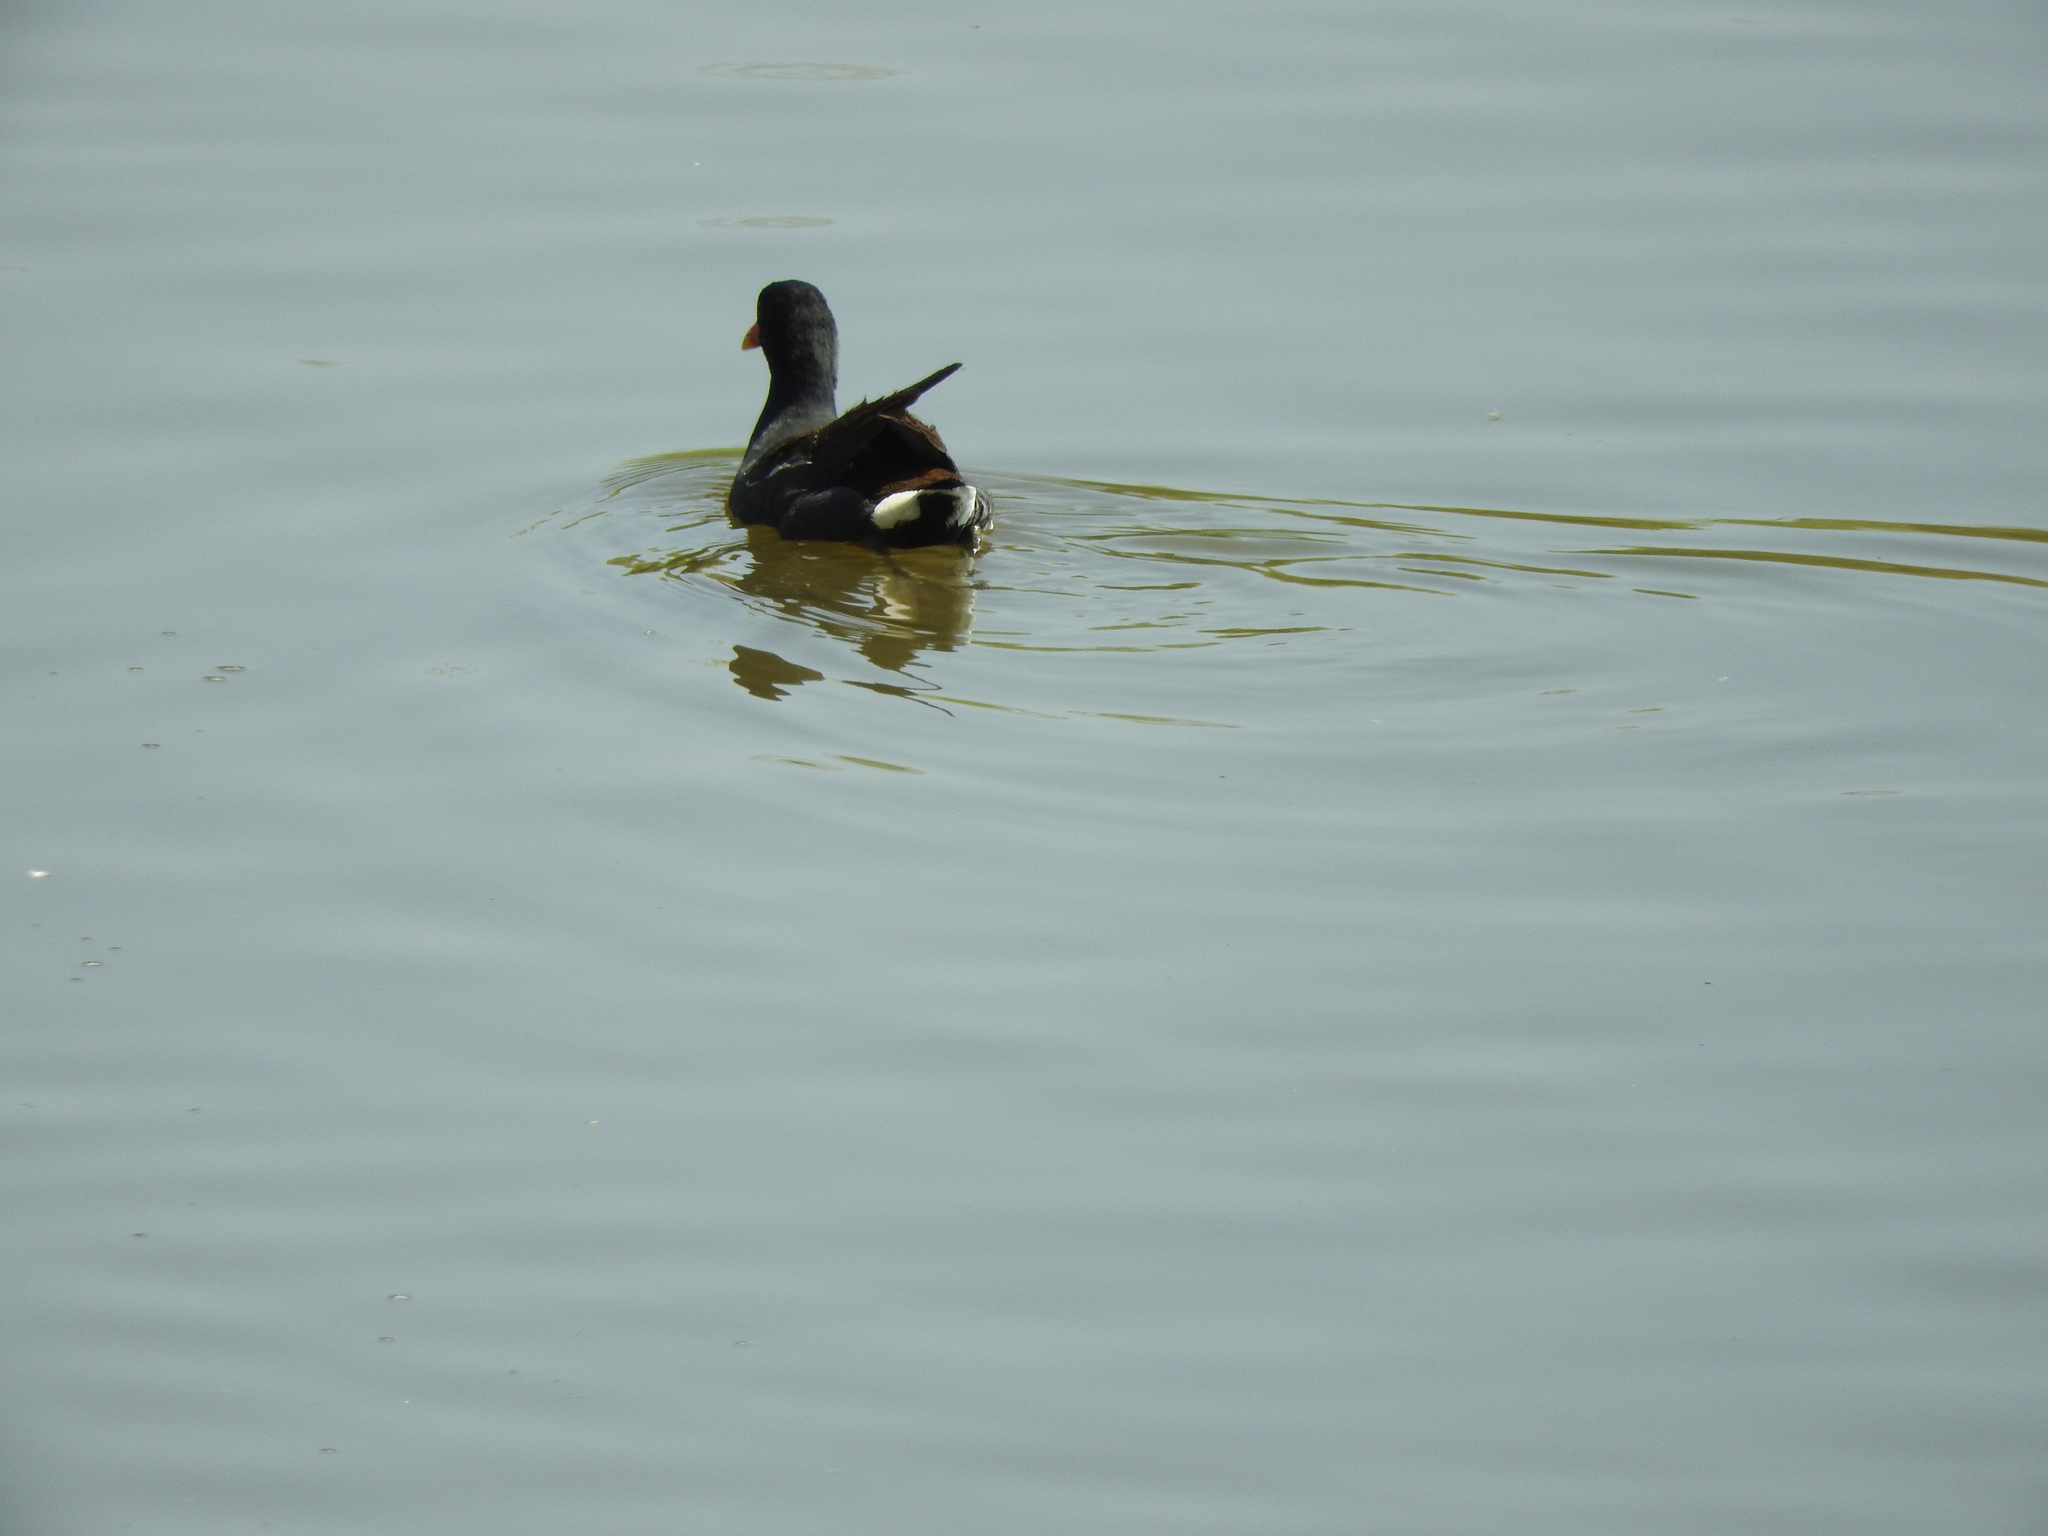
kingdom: Animalia
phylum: Chordata
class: Aves
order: Gruiformes
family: Rallidae
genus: Gallinula
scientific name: Gallinula chloropus
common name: Common moorhen
